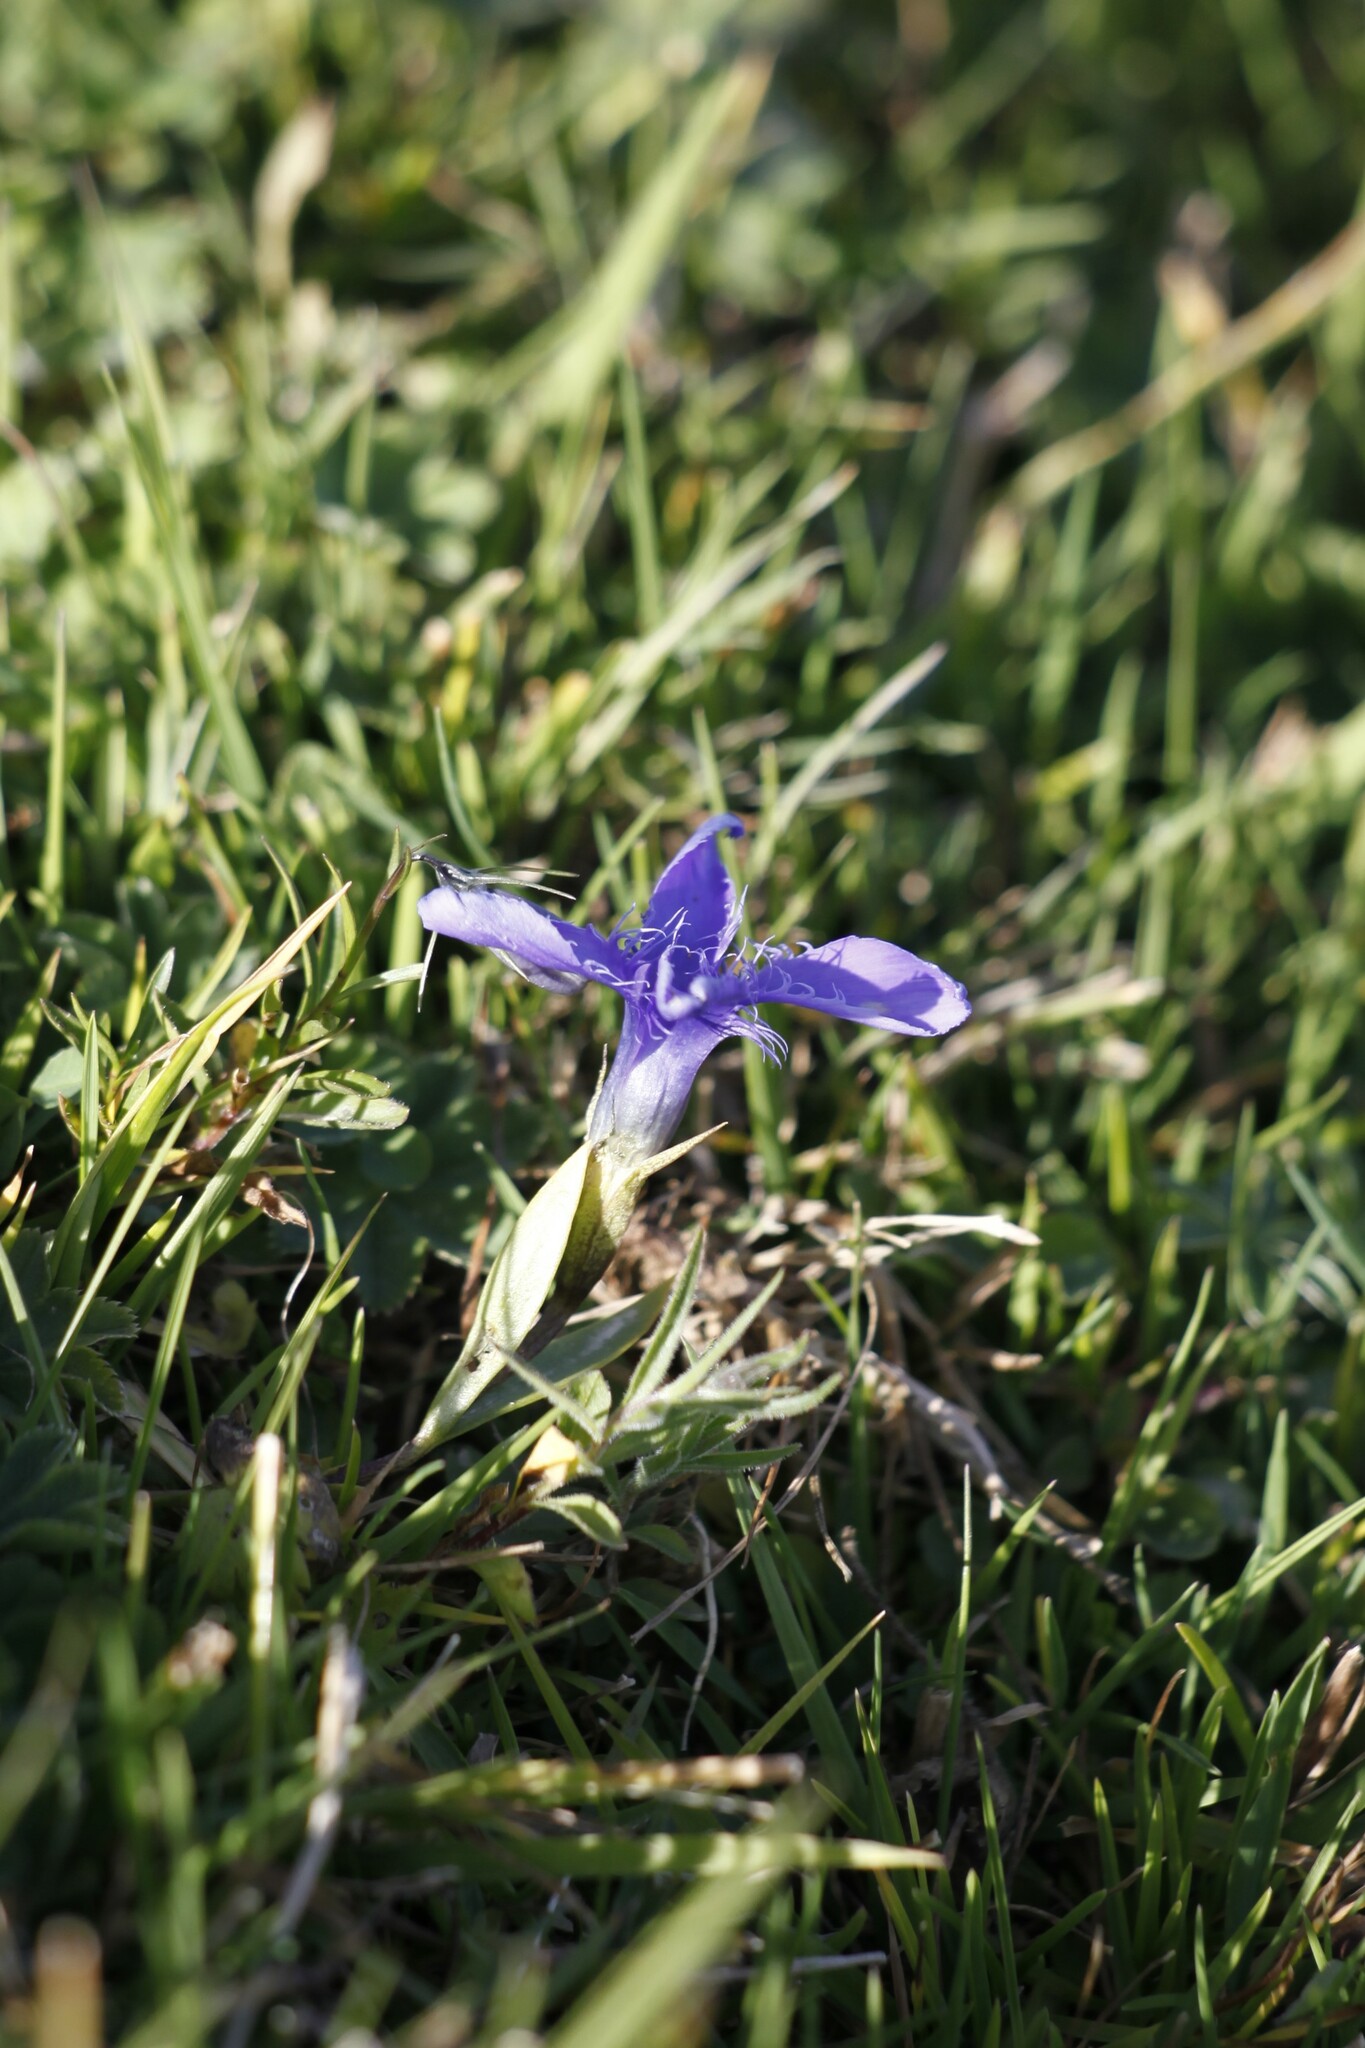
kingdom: Plantae
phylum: Tracheophyta
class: Magnoliopsida
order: Gentianales
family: Gentianaceae
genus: Gentianopsis
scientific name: Gentianopsis ciliata
